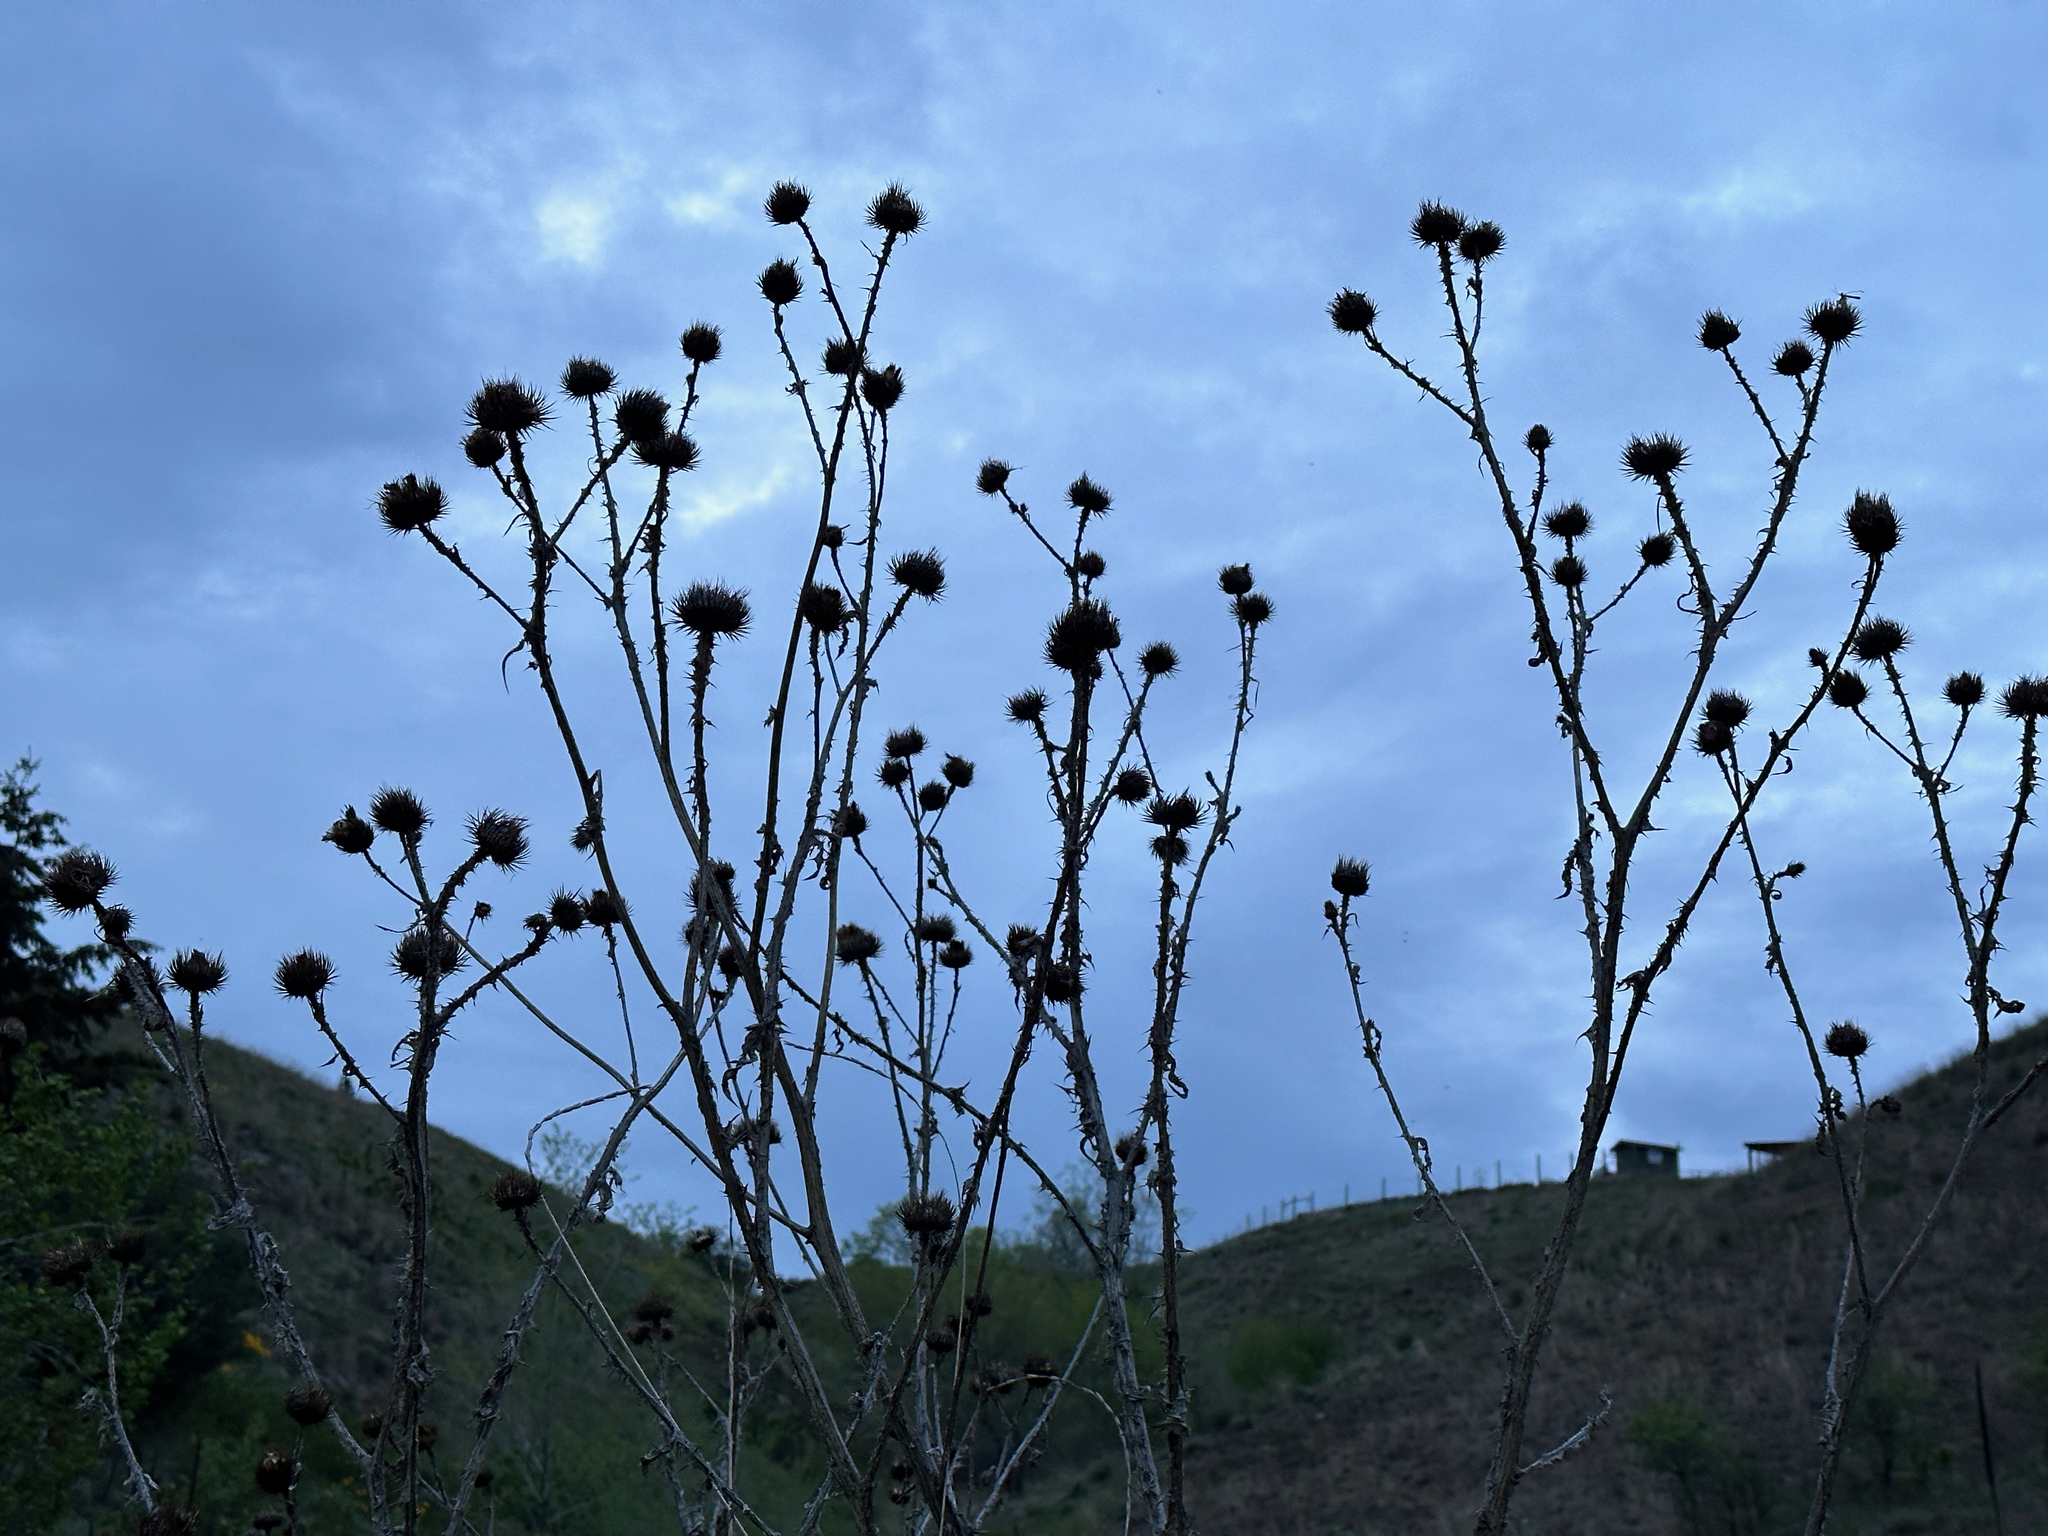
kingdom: Plantae
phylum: Tracheophyta
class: Magnoliopsida
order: Asterales
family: Asteraceae
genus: Onopordum
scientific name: Onopordum acanthium
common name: Scotch thistle
